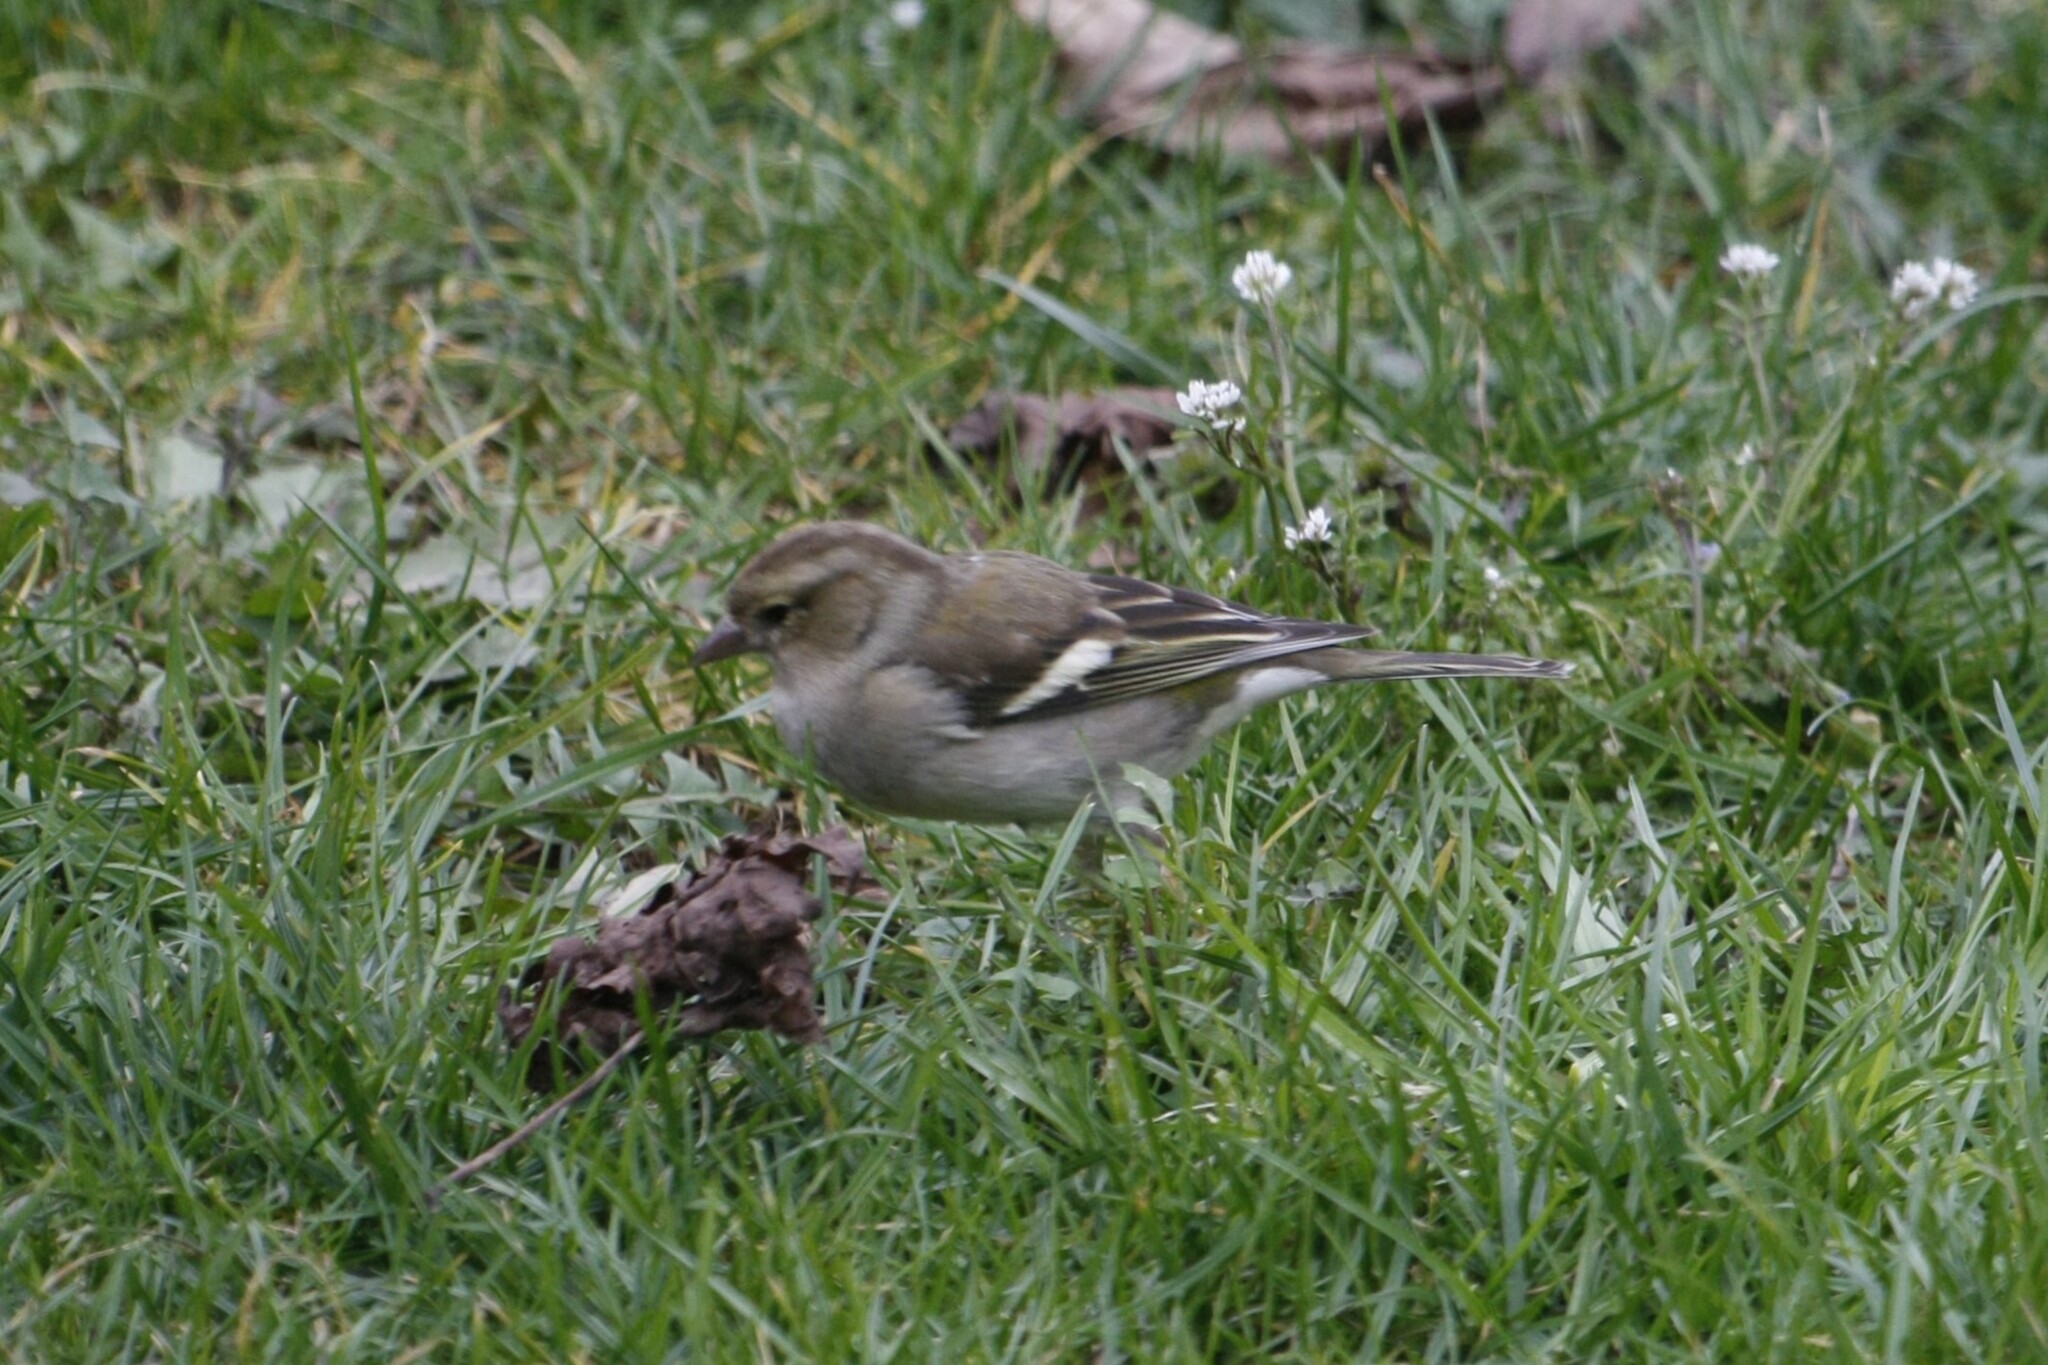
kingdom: Animalia
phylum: Chordata
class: Aves
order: Passeriformes
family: Fringillidae
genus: Fringilla
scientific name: Fringilla coelebs
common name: Common chaffinch
